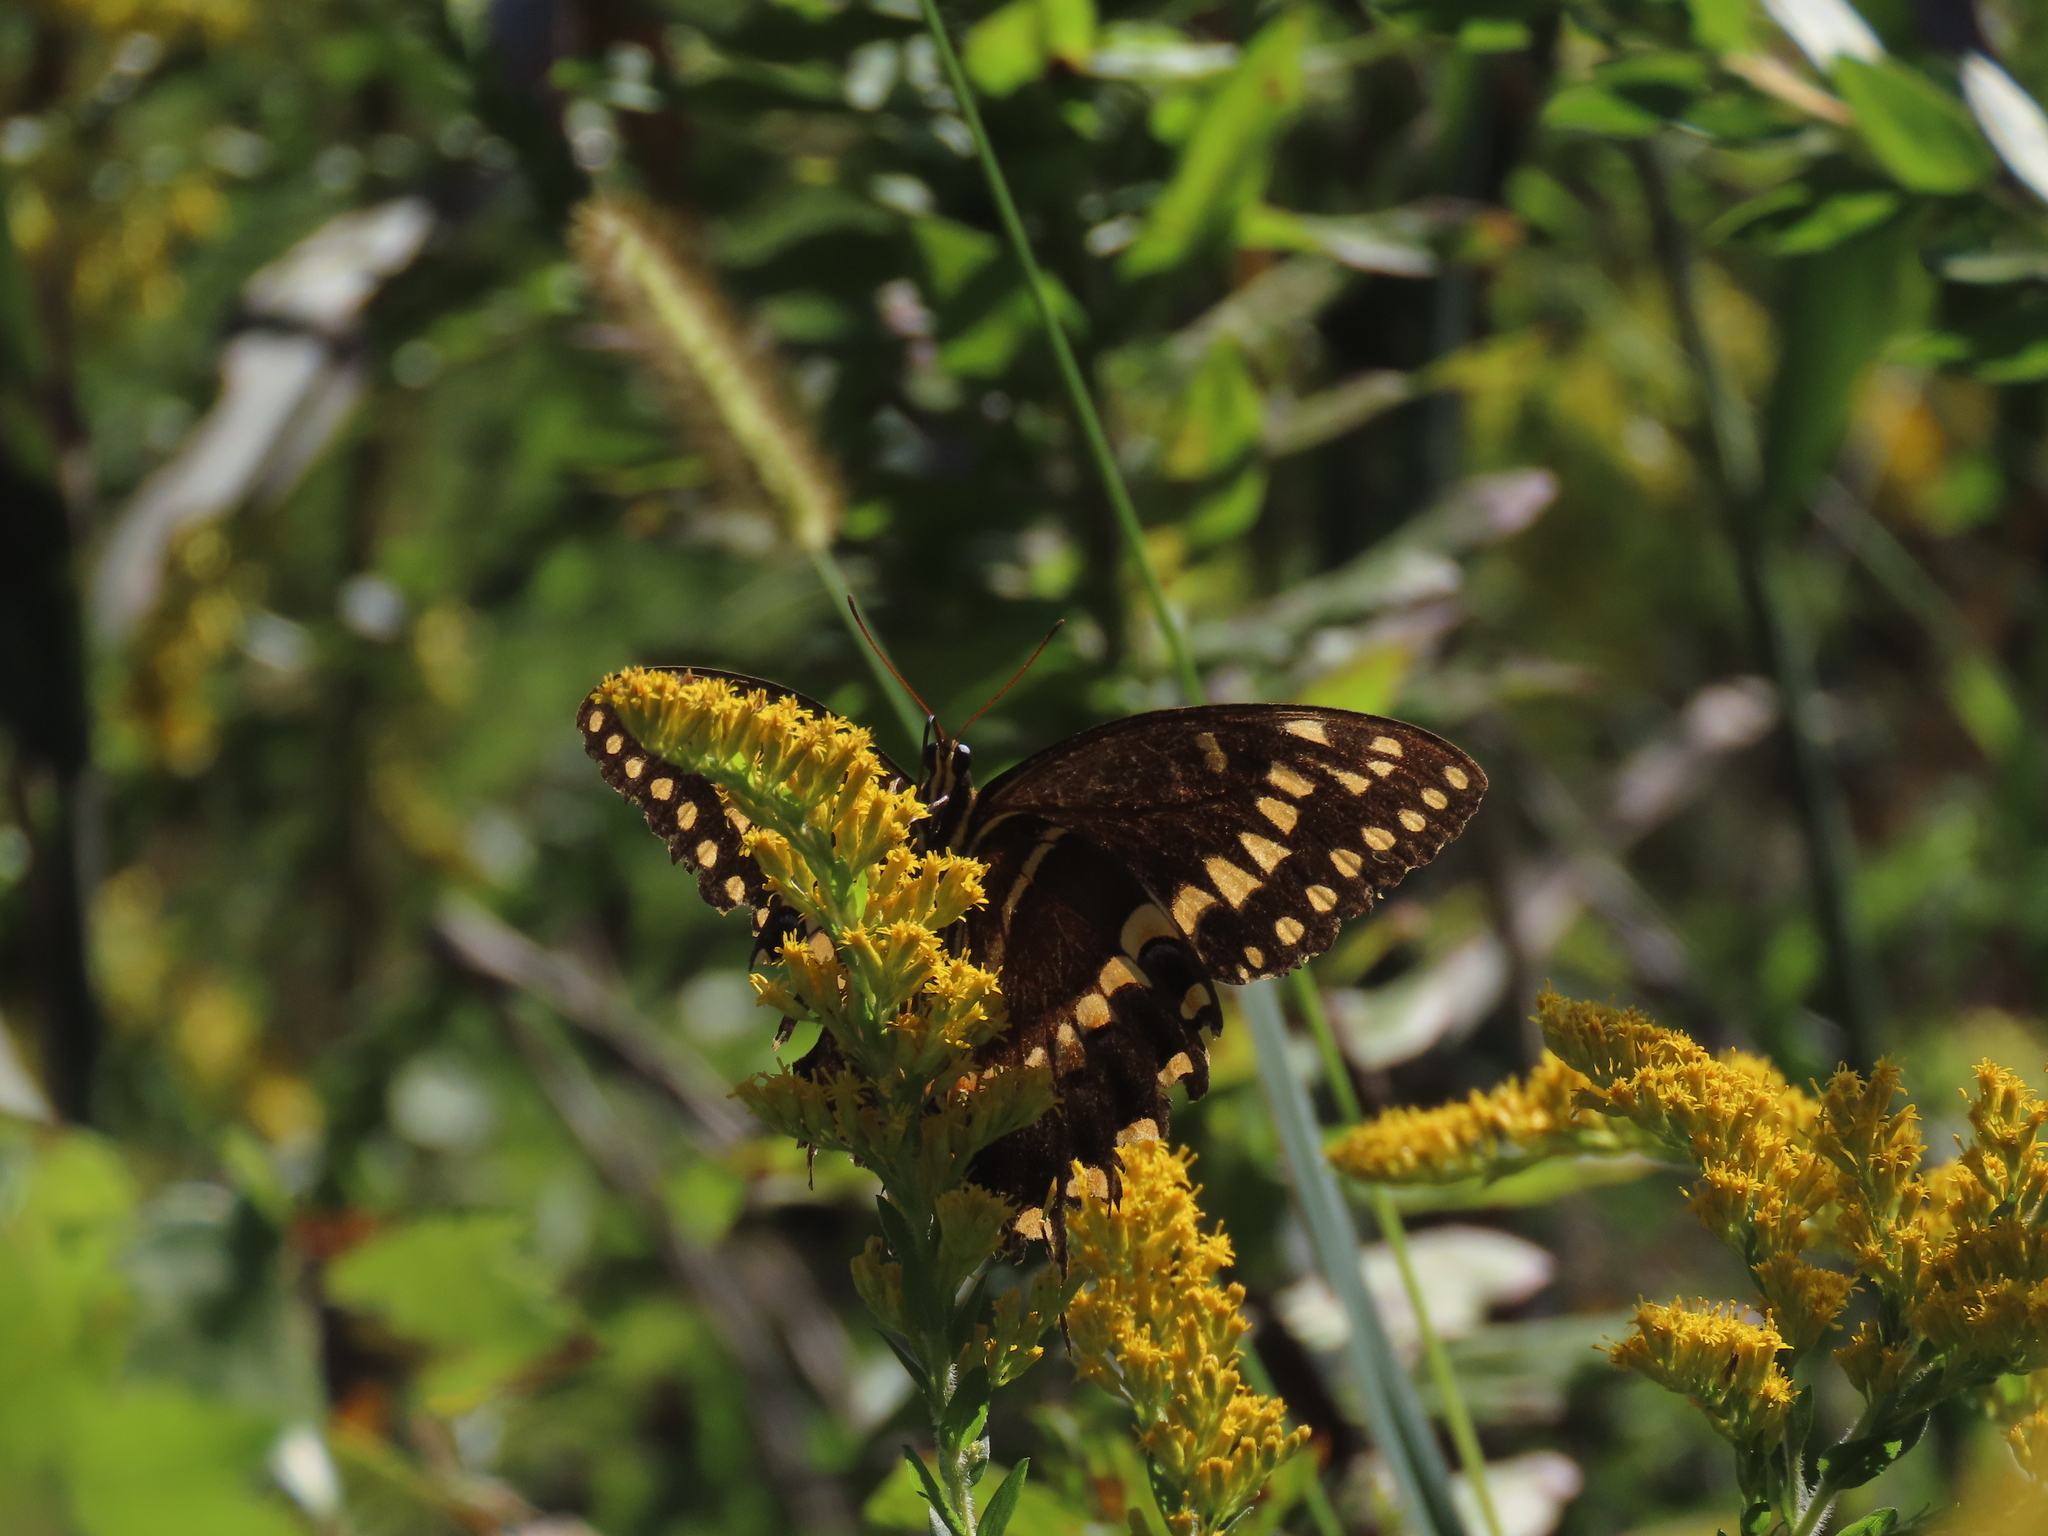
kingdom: Animalia
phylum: Arthropoda
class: Insecta
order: Lepidoptera
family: Papilionidae
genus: Papilio
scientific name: Papilio palamedes
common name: Palamedes swallowtail
